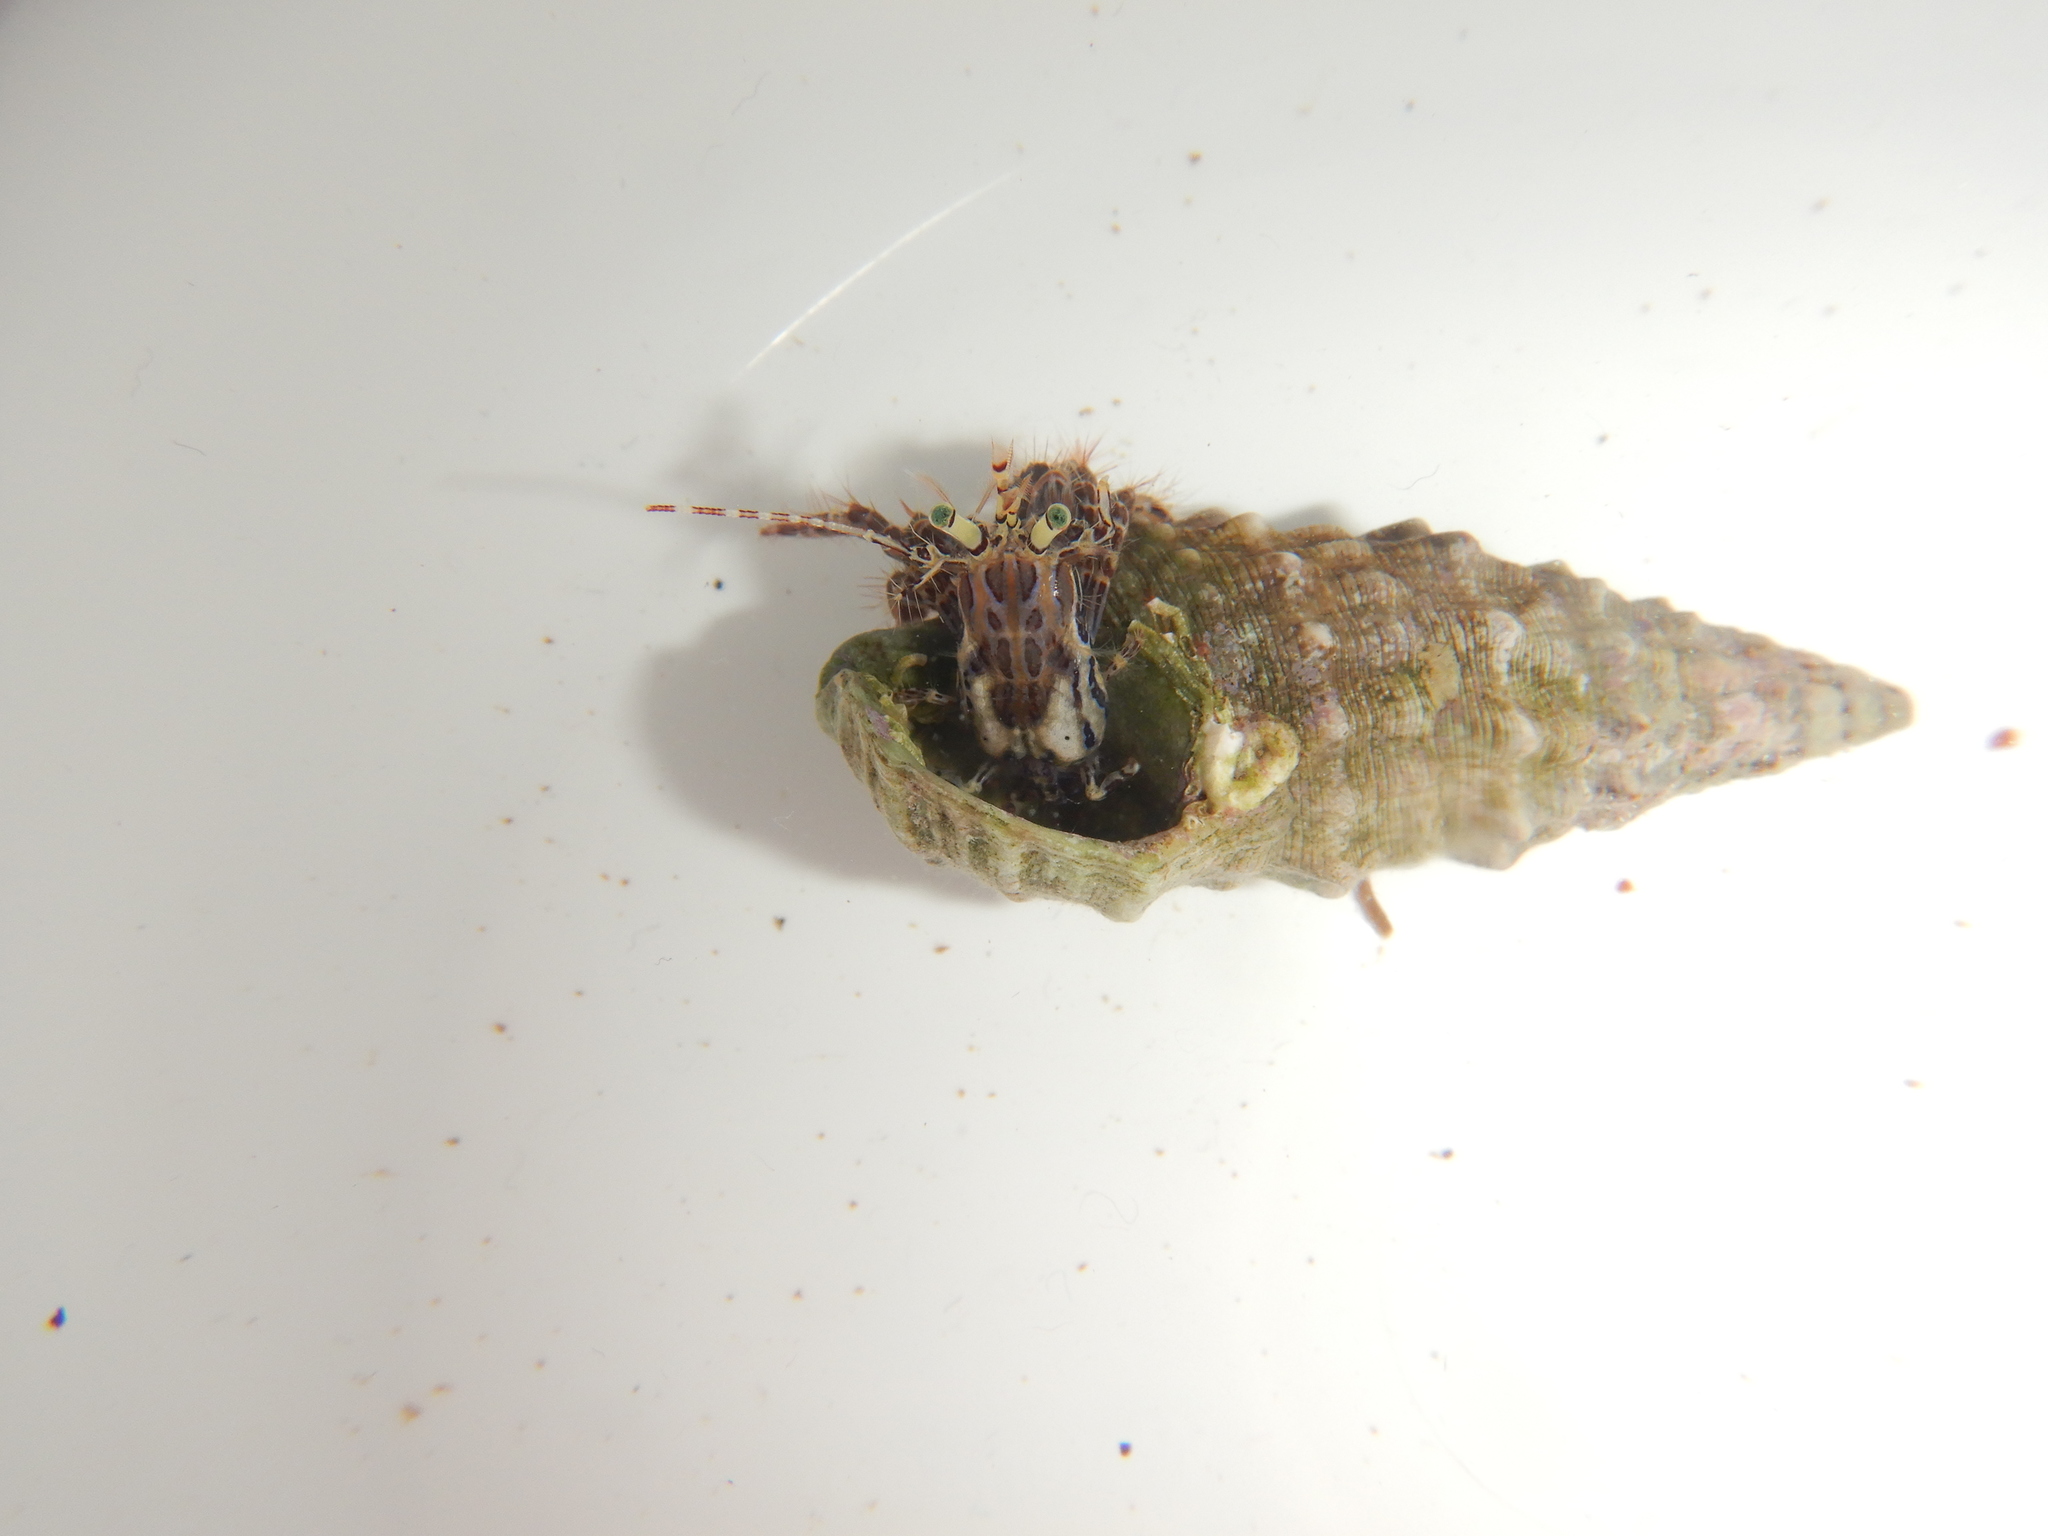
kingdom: Animalia
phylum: Arthropoda
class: Malacostraca
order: Decapoda
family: Paguridae
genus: Pagurus
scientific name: Pagurus anachoretus
